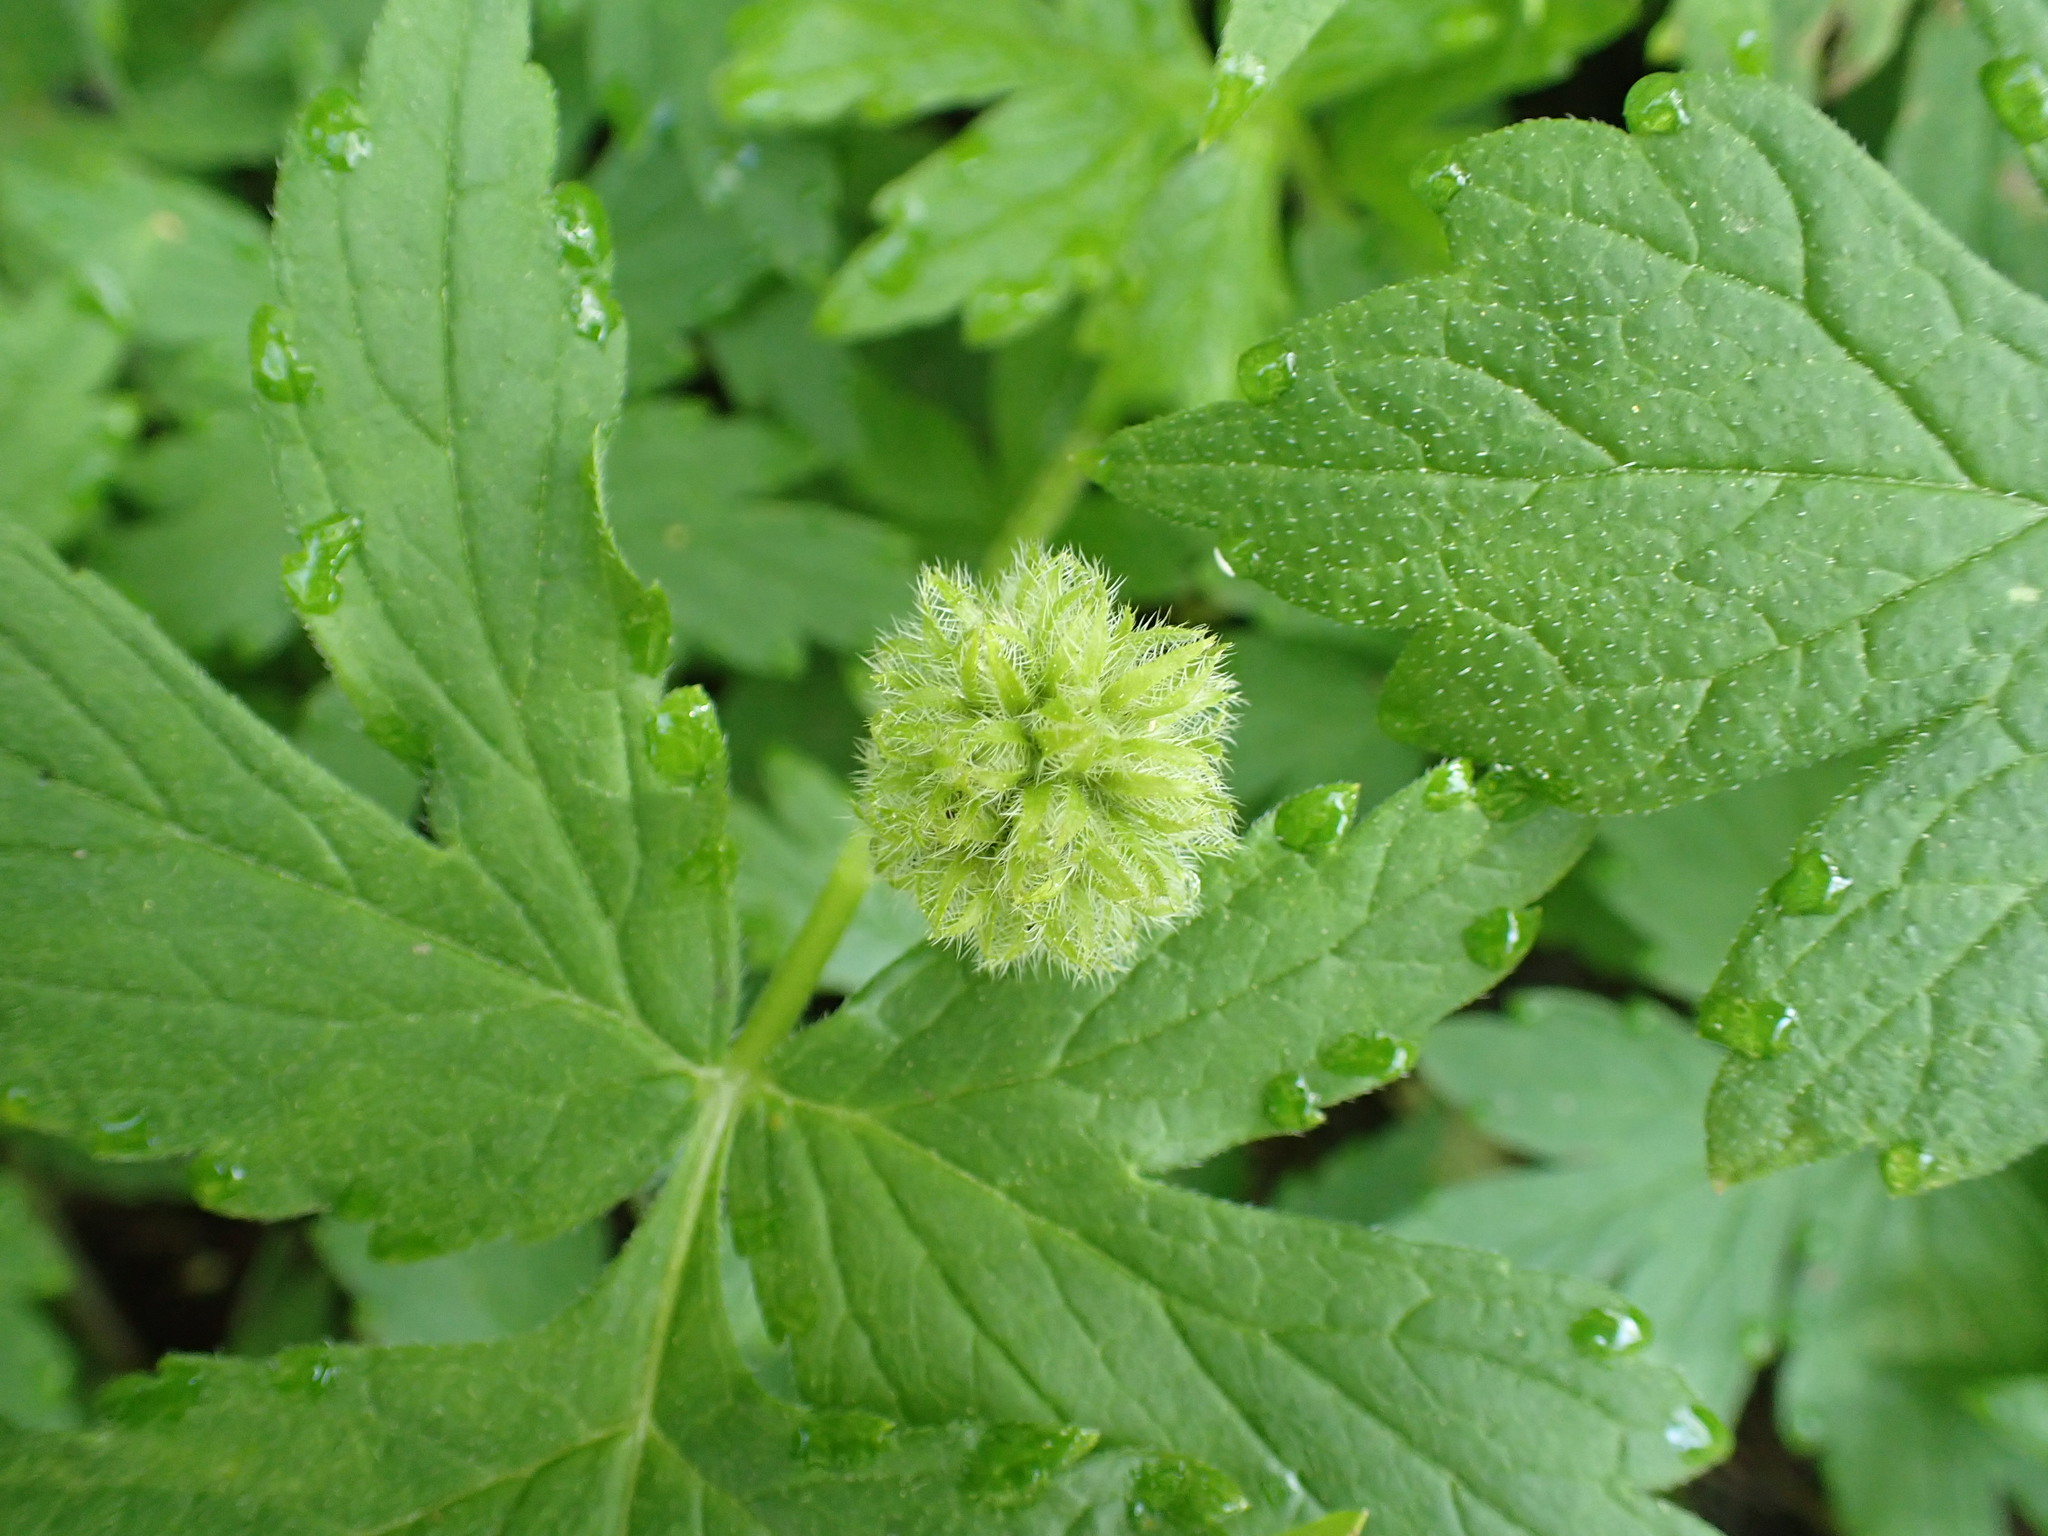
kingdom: Plantae
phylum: Tracheophyta
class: Magnoliopsida
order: Boraginales
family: Hydrophyllaceae
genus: Hydrophyllum
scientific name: Hydrophyllum tenuipes
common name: Pacific waterleaf
